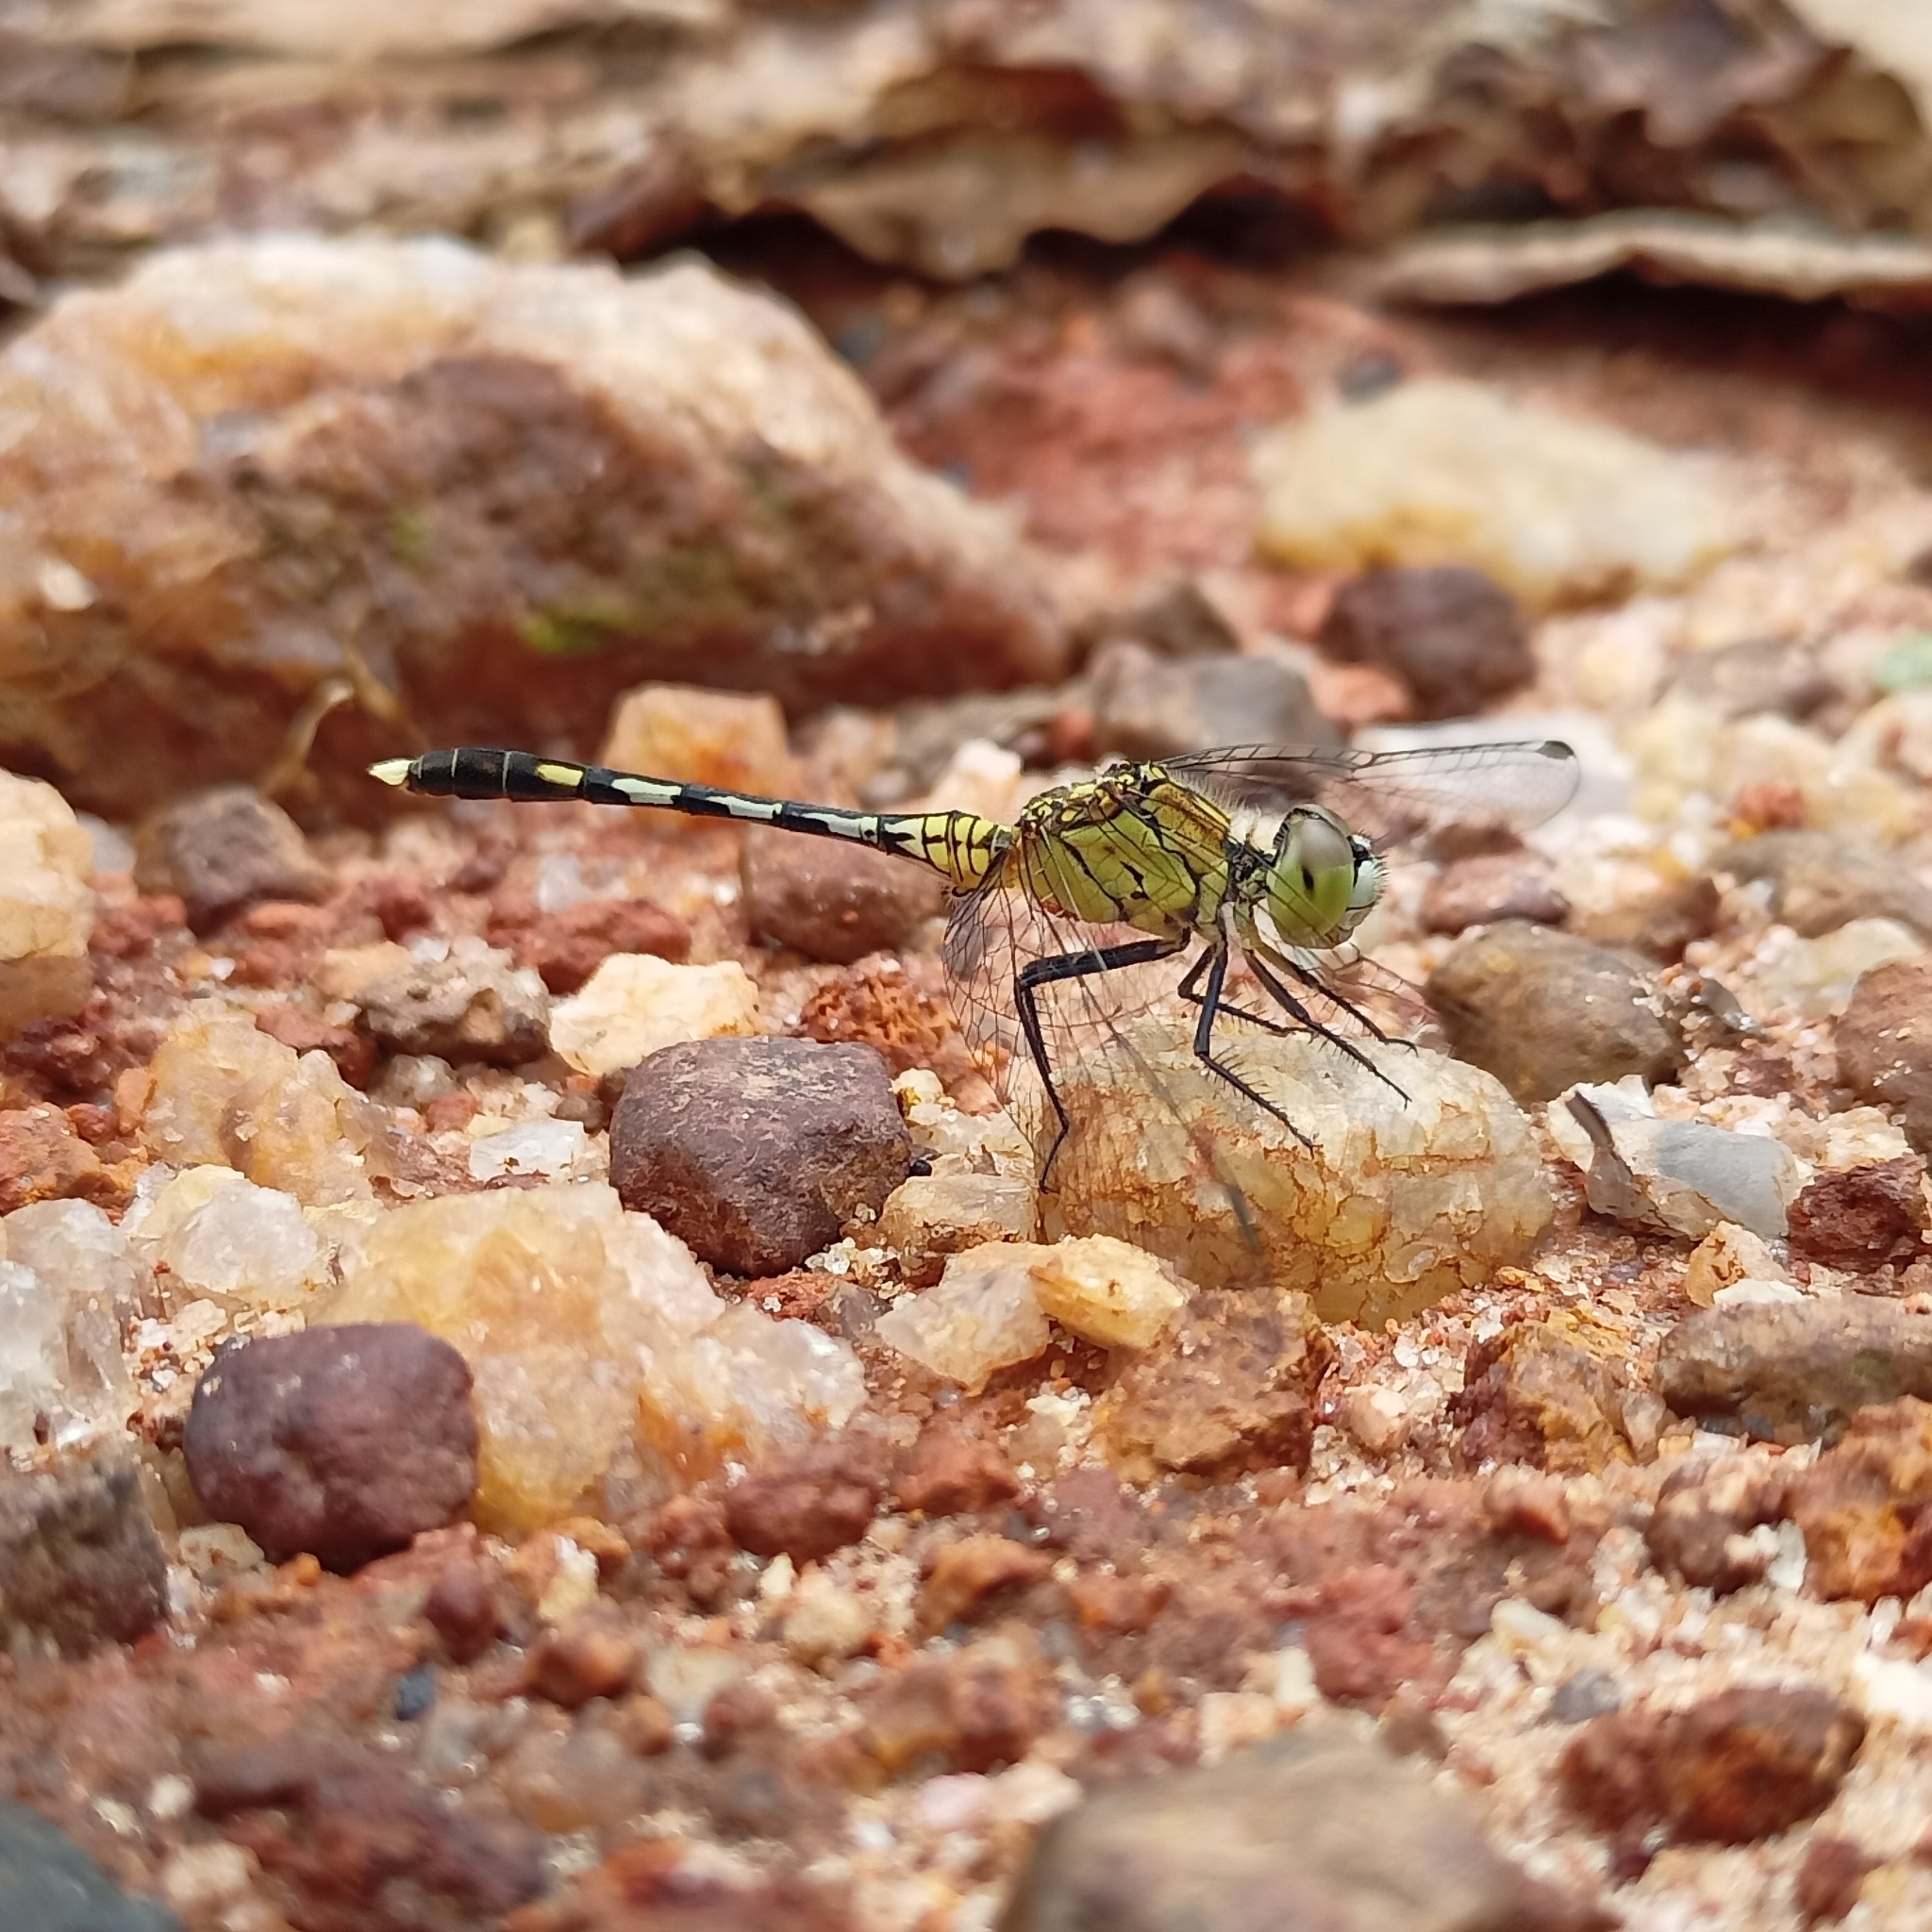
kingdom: Animalia
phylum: Arthropoda
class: Insecta
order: Odonata
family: Libellulidae
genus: Diplacodes
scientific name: Diplacodes trivialis
